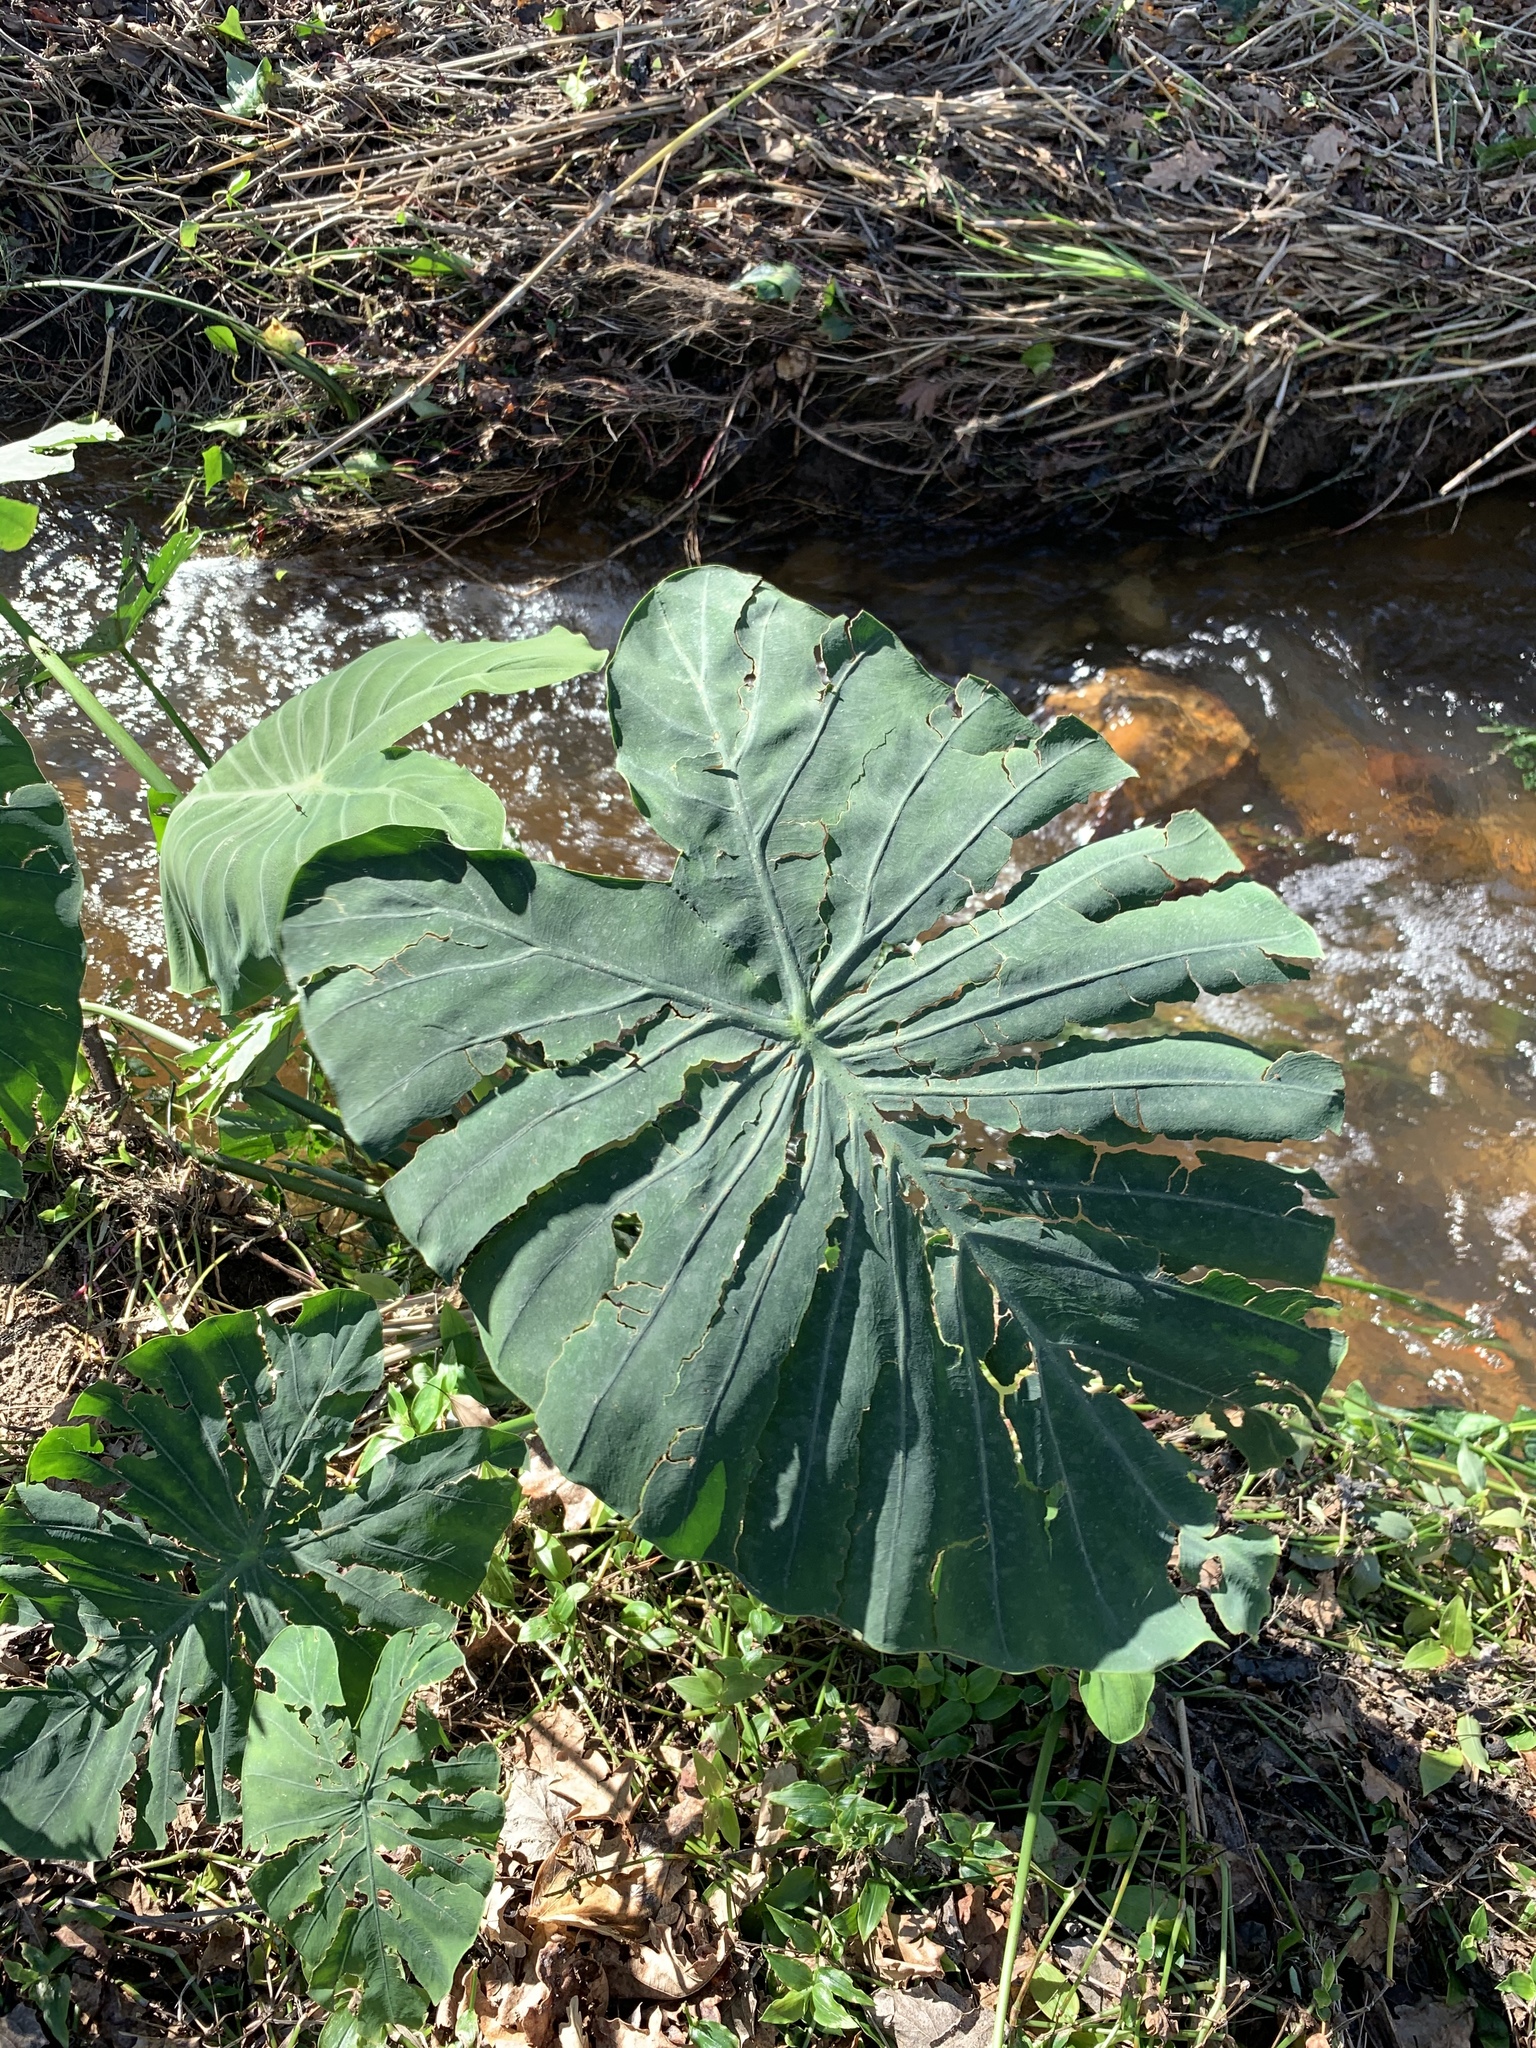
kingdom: Plantae
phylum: Tracheophyta
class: Liliopsida
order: Alismatales
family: Araceae
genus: Colocasia
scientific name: Colocasia esculenta
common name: Taro
